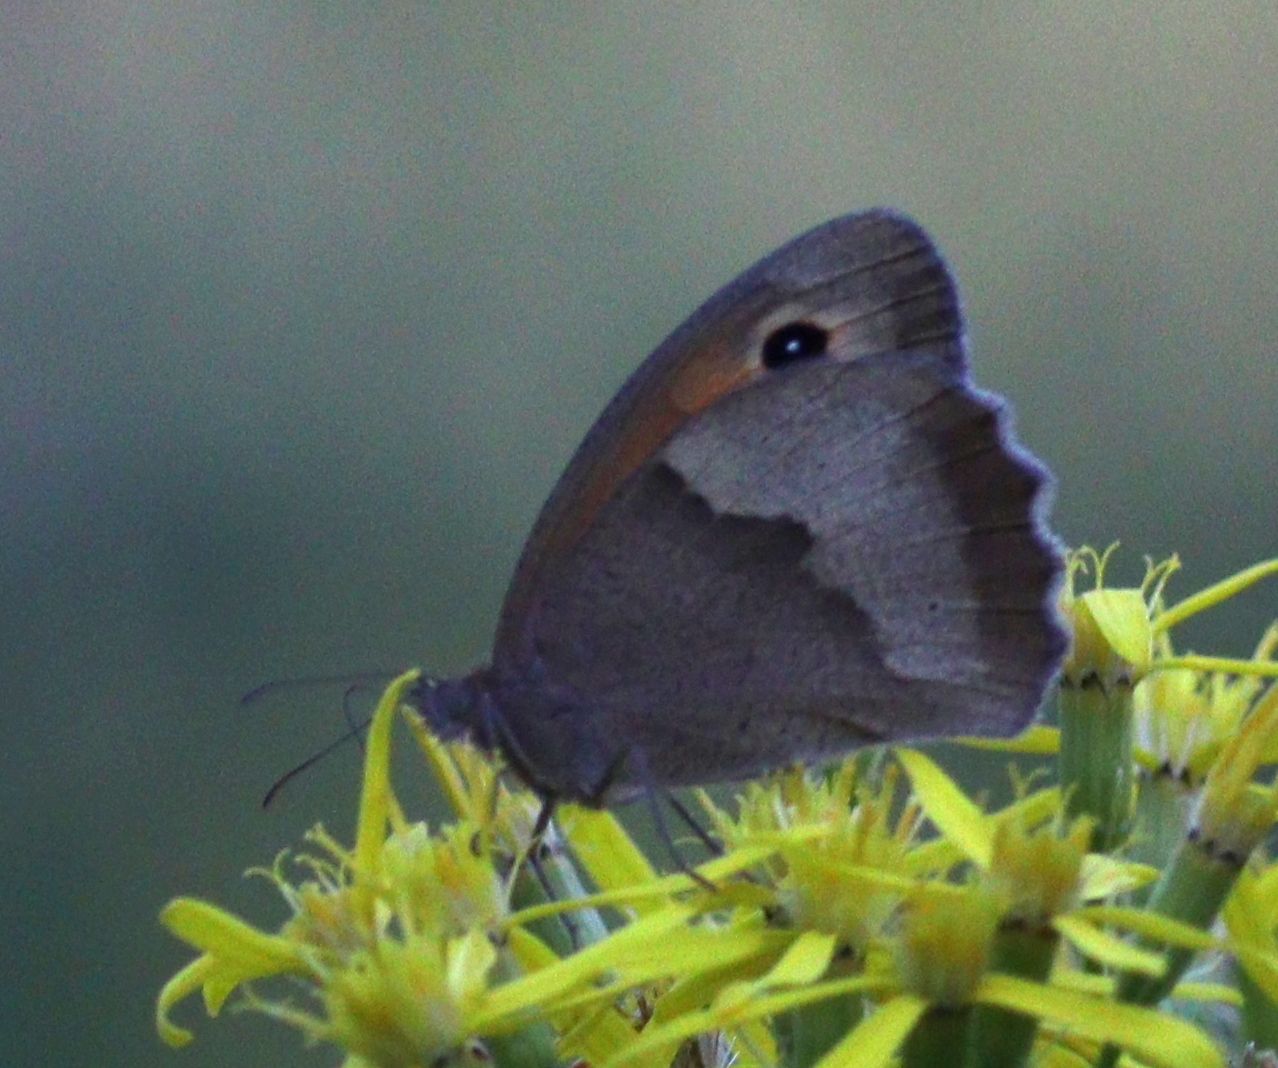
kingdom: Animalia
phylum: Arthropoda
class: Insecta
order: Lepidoptera
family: Nymphalidae
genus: Maniola
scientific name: Maniola jurtina
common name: Meadow brown
